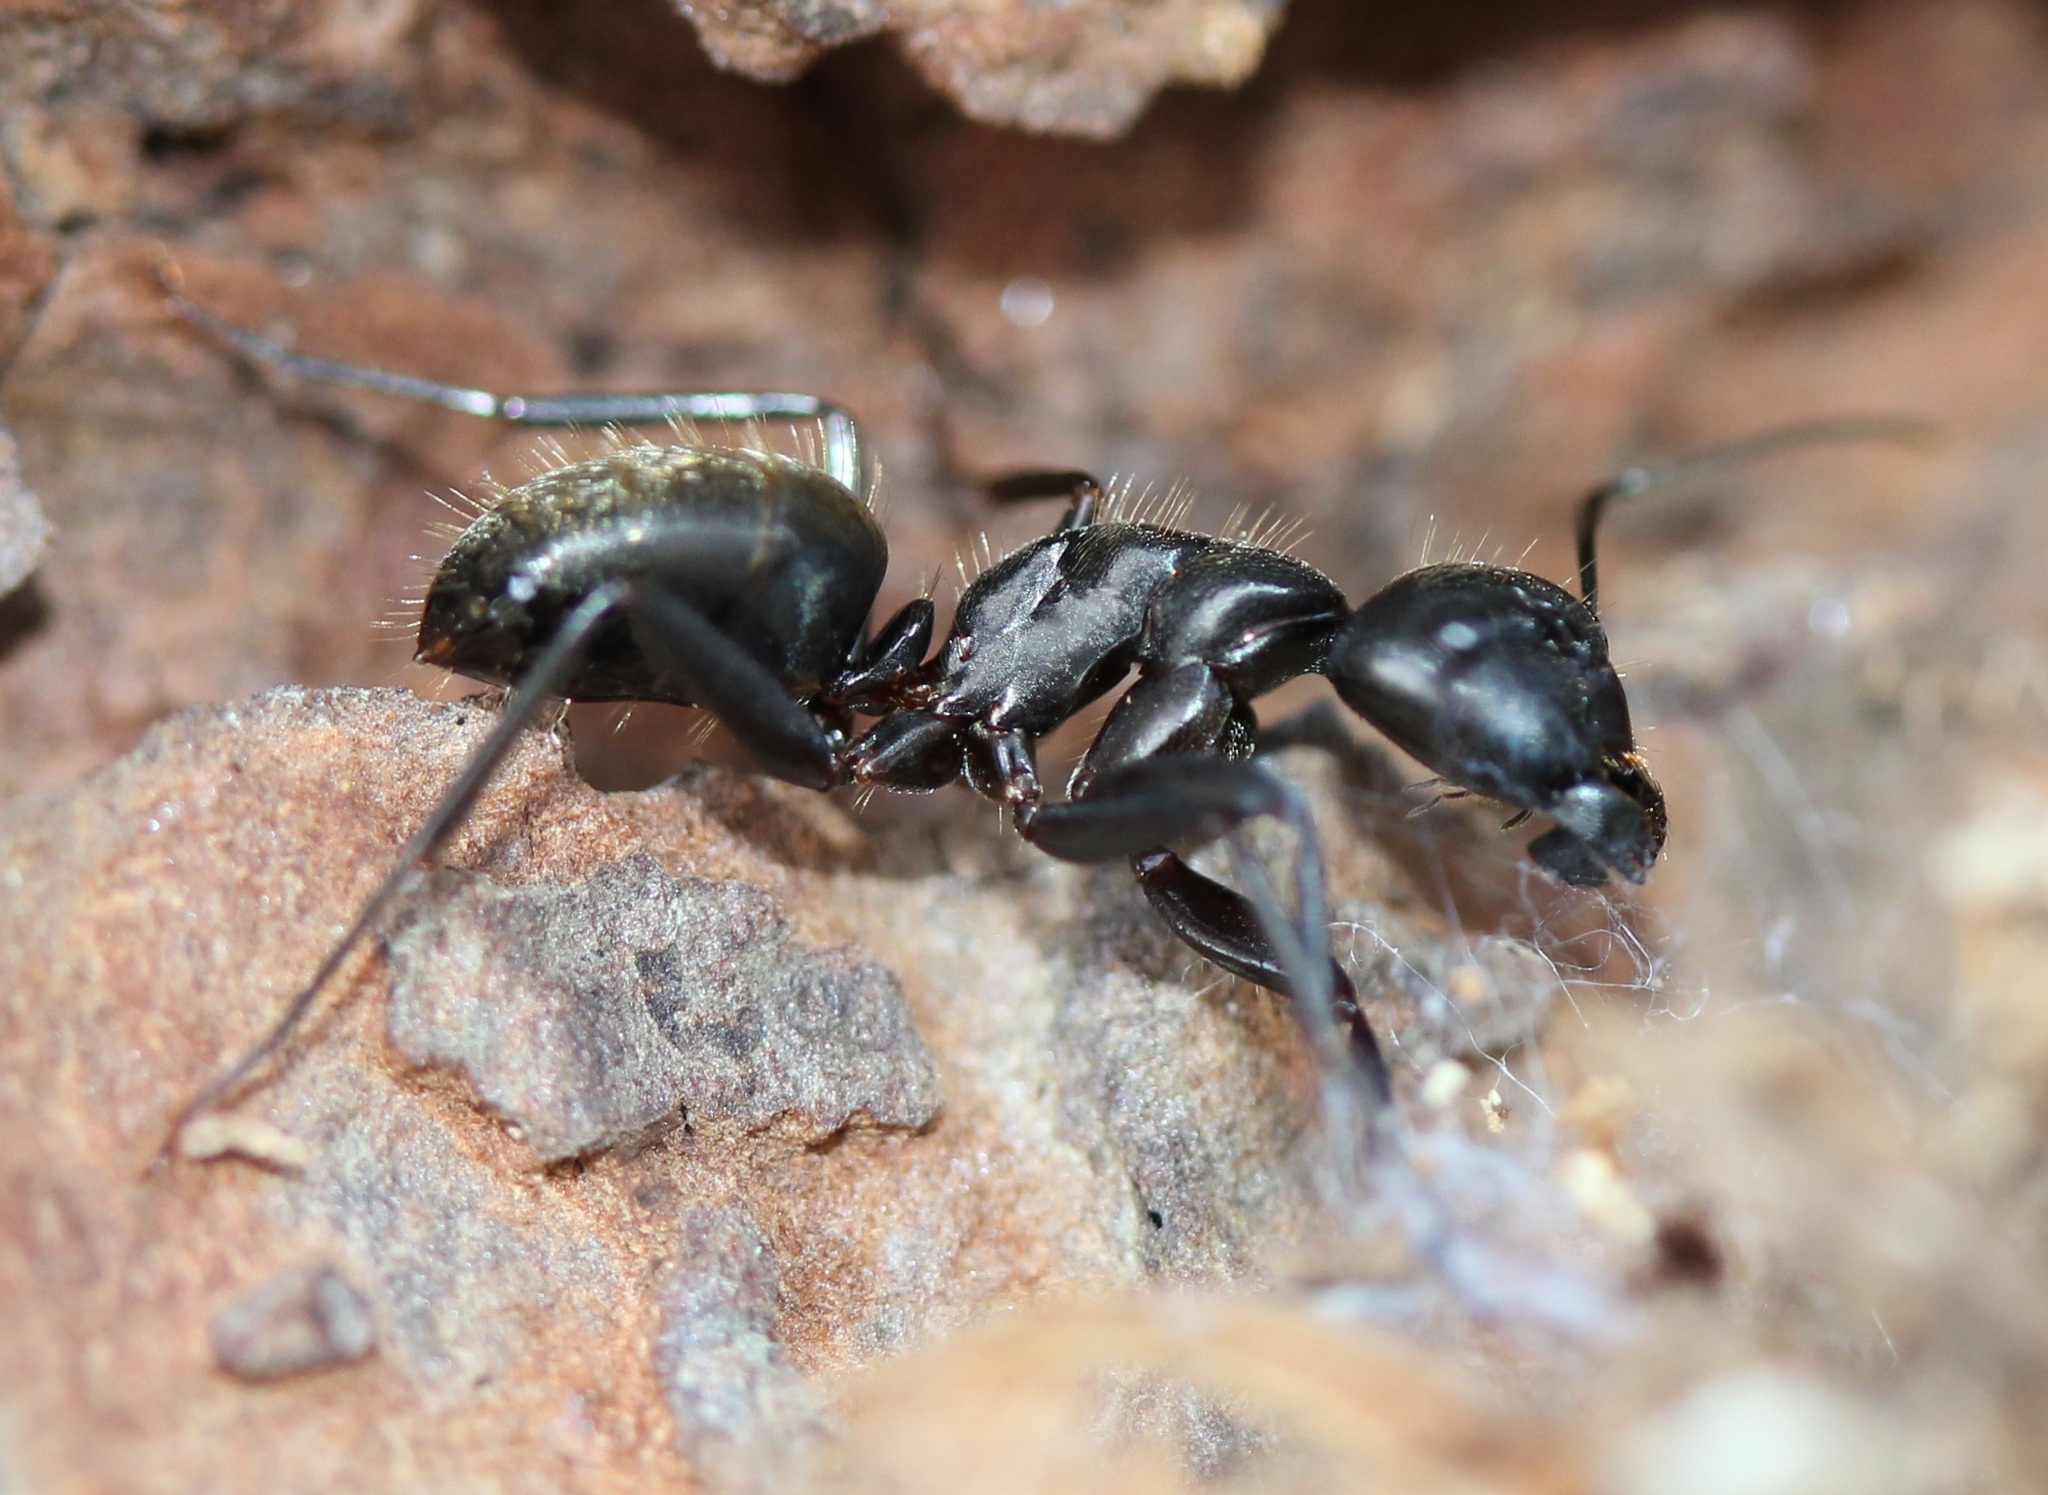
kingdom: Animalia
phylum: Arthropoda
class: Insecta
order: Hymenoptera
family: Formicidae
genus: Camponotus
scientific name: Camponotus pennsylvanicus
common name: Black carpenter ant
